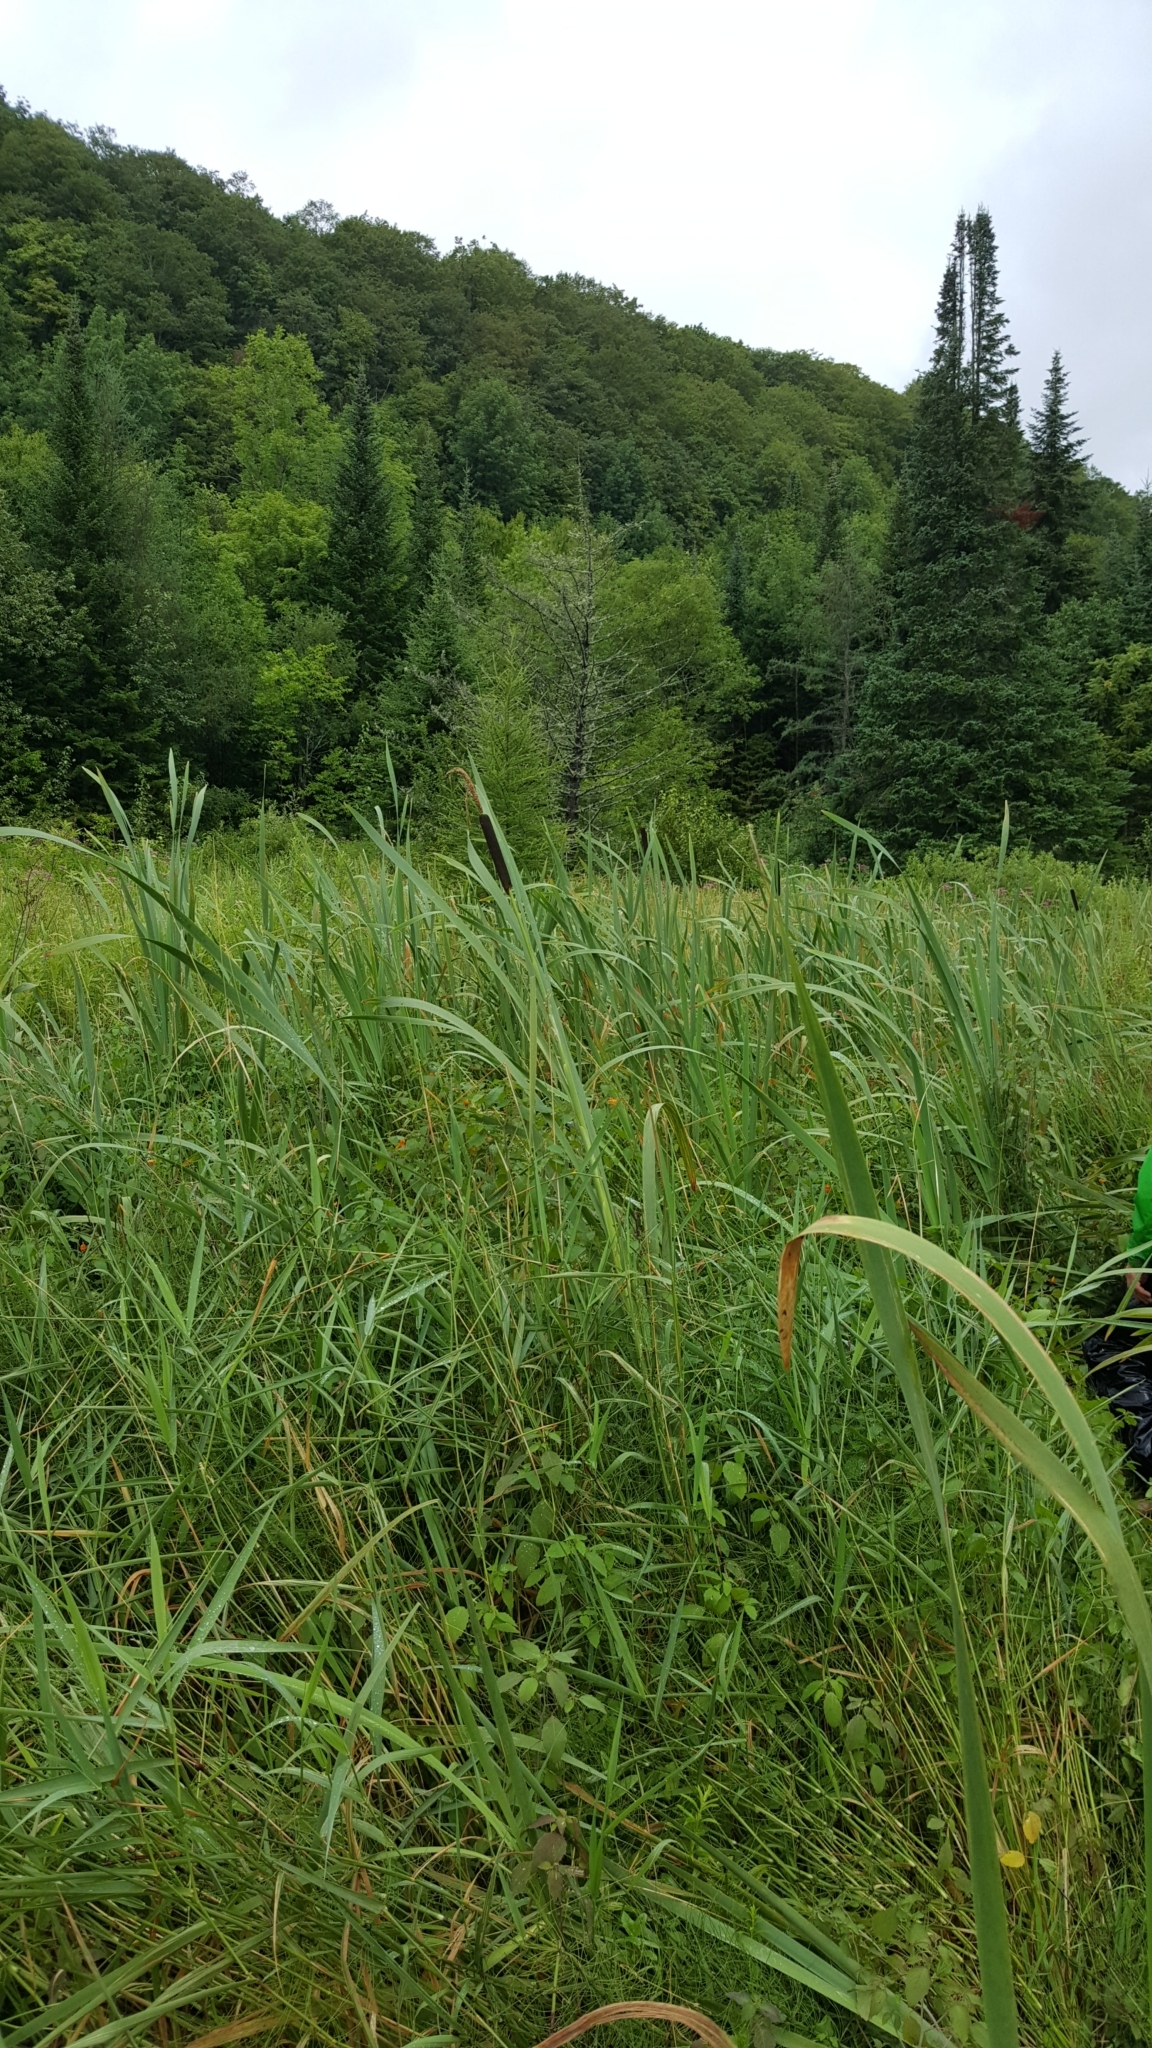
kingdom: Plantae
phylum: Tracheophyta
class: Liliopsida
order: Poales
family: Typhaceae
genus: Typha
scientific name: Typha latifolia
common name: Broadleaf cattail
